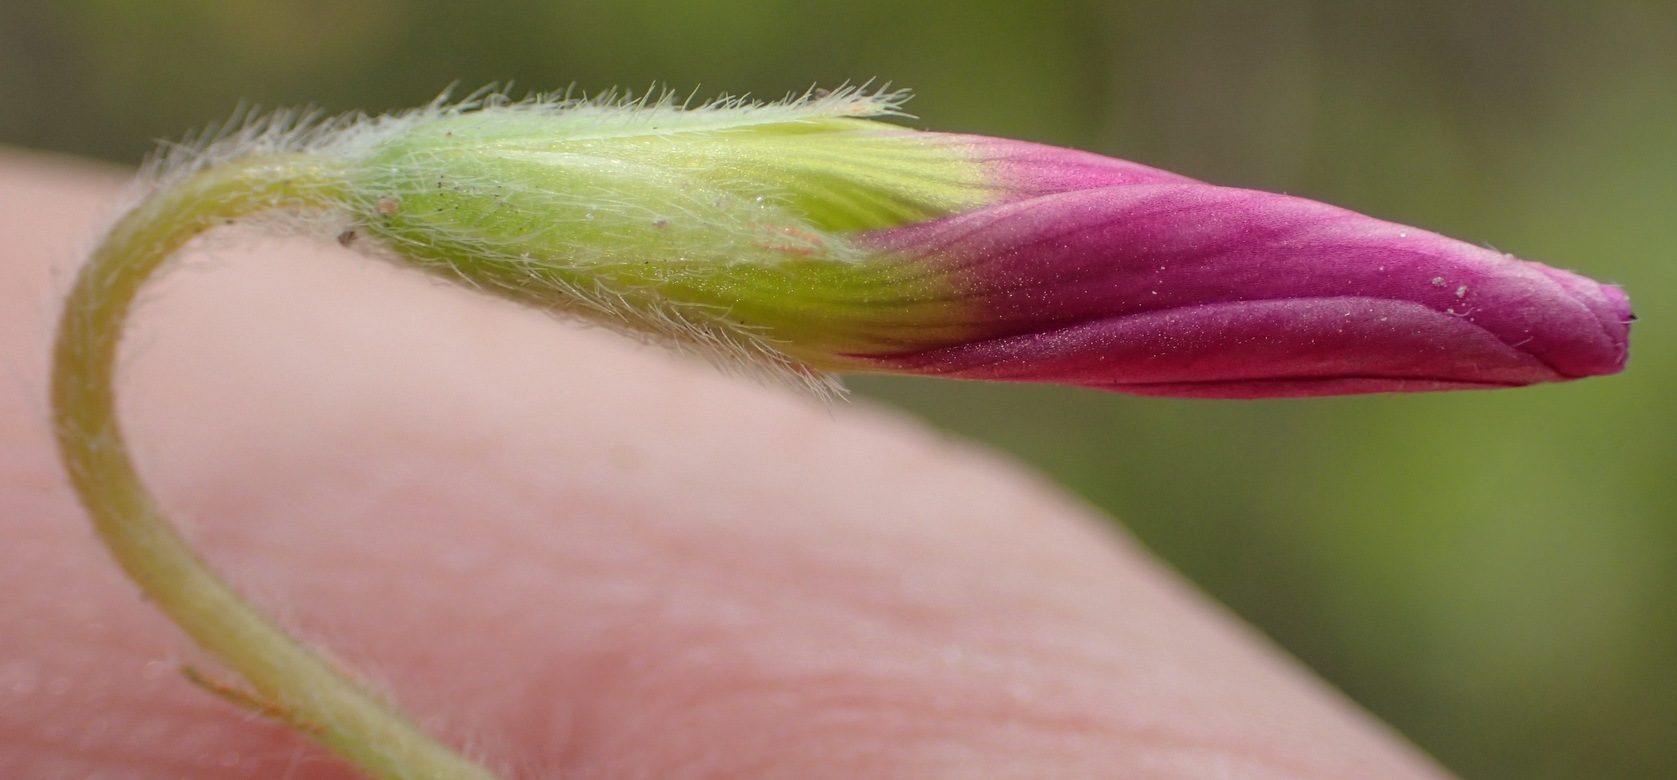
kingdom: Plantae
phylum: Tracheophyta
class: Magnoliopsida
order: Oxalidales
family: Oxalidaceae
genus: Oxalis
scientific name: Oxalis imbricata
